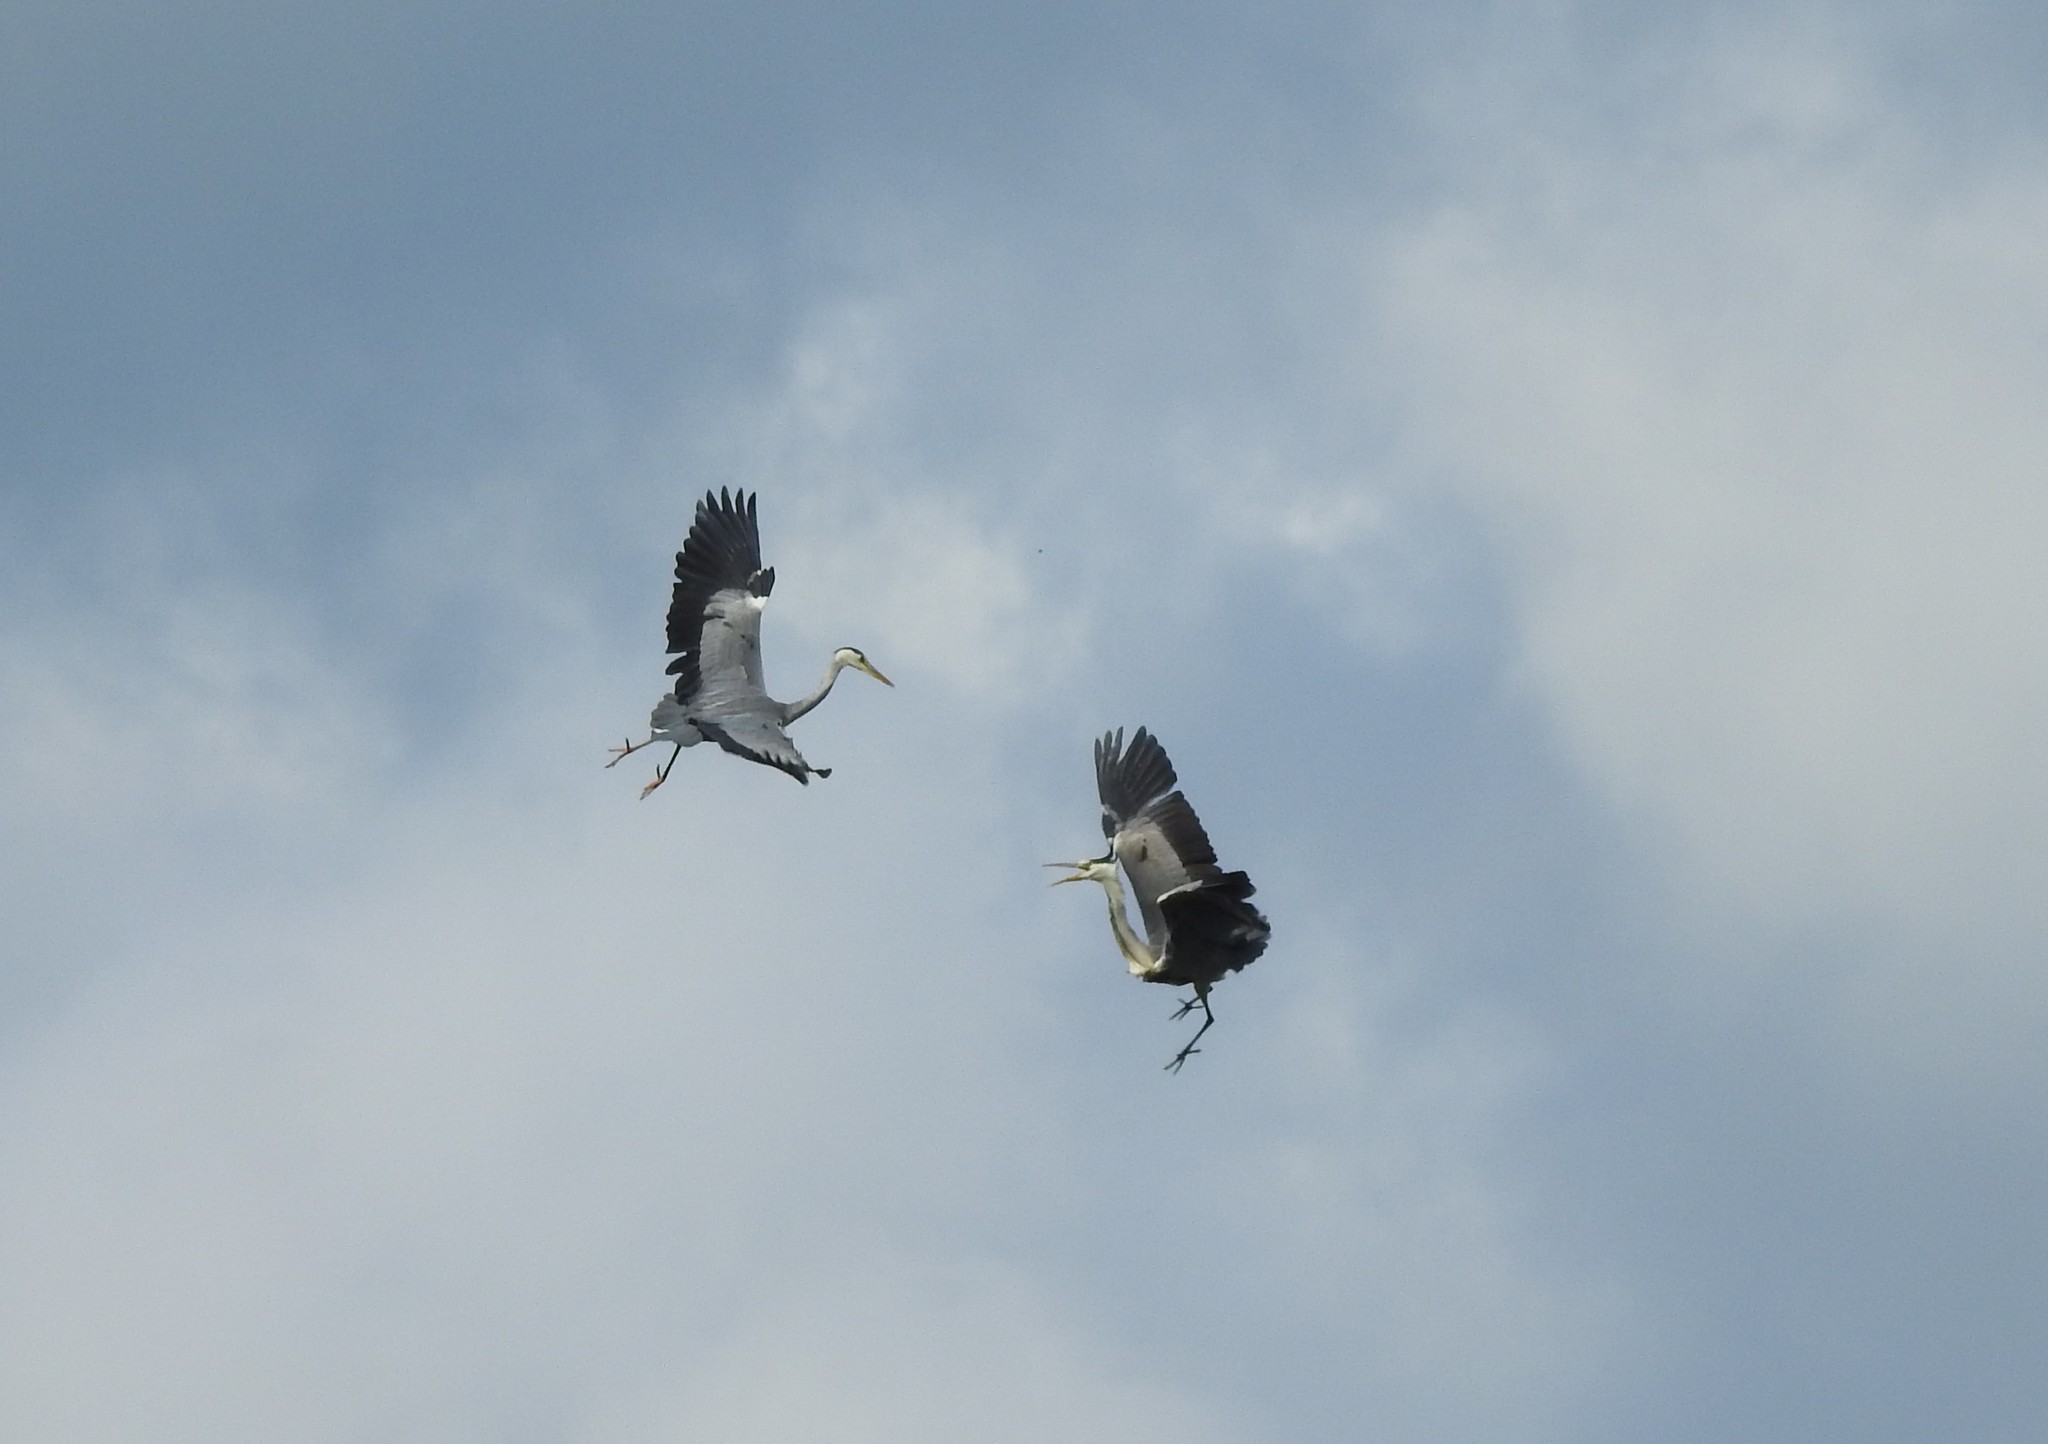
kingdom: Animalia
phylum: Chordata
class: Aves
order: Pelecaniformes
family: Ardeidae
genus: Ardea
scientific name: Ardea cinerea
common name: Grey heron
